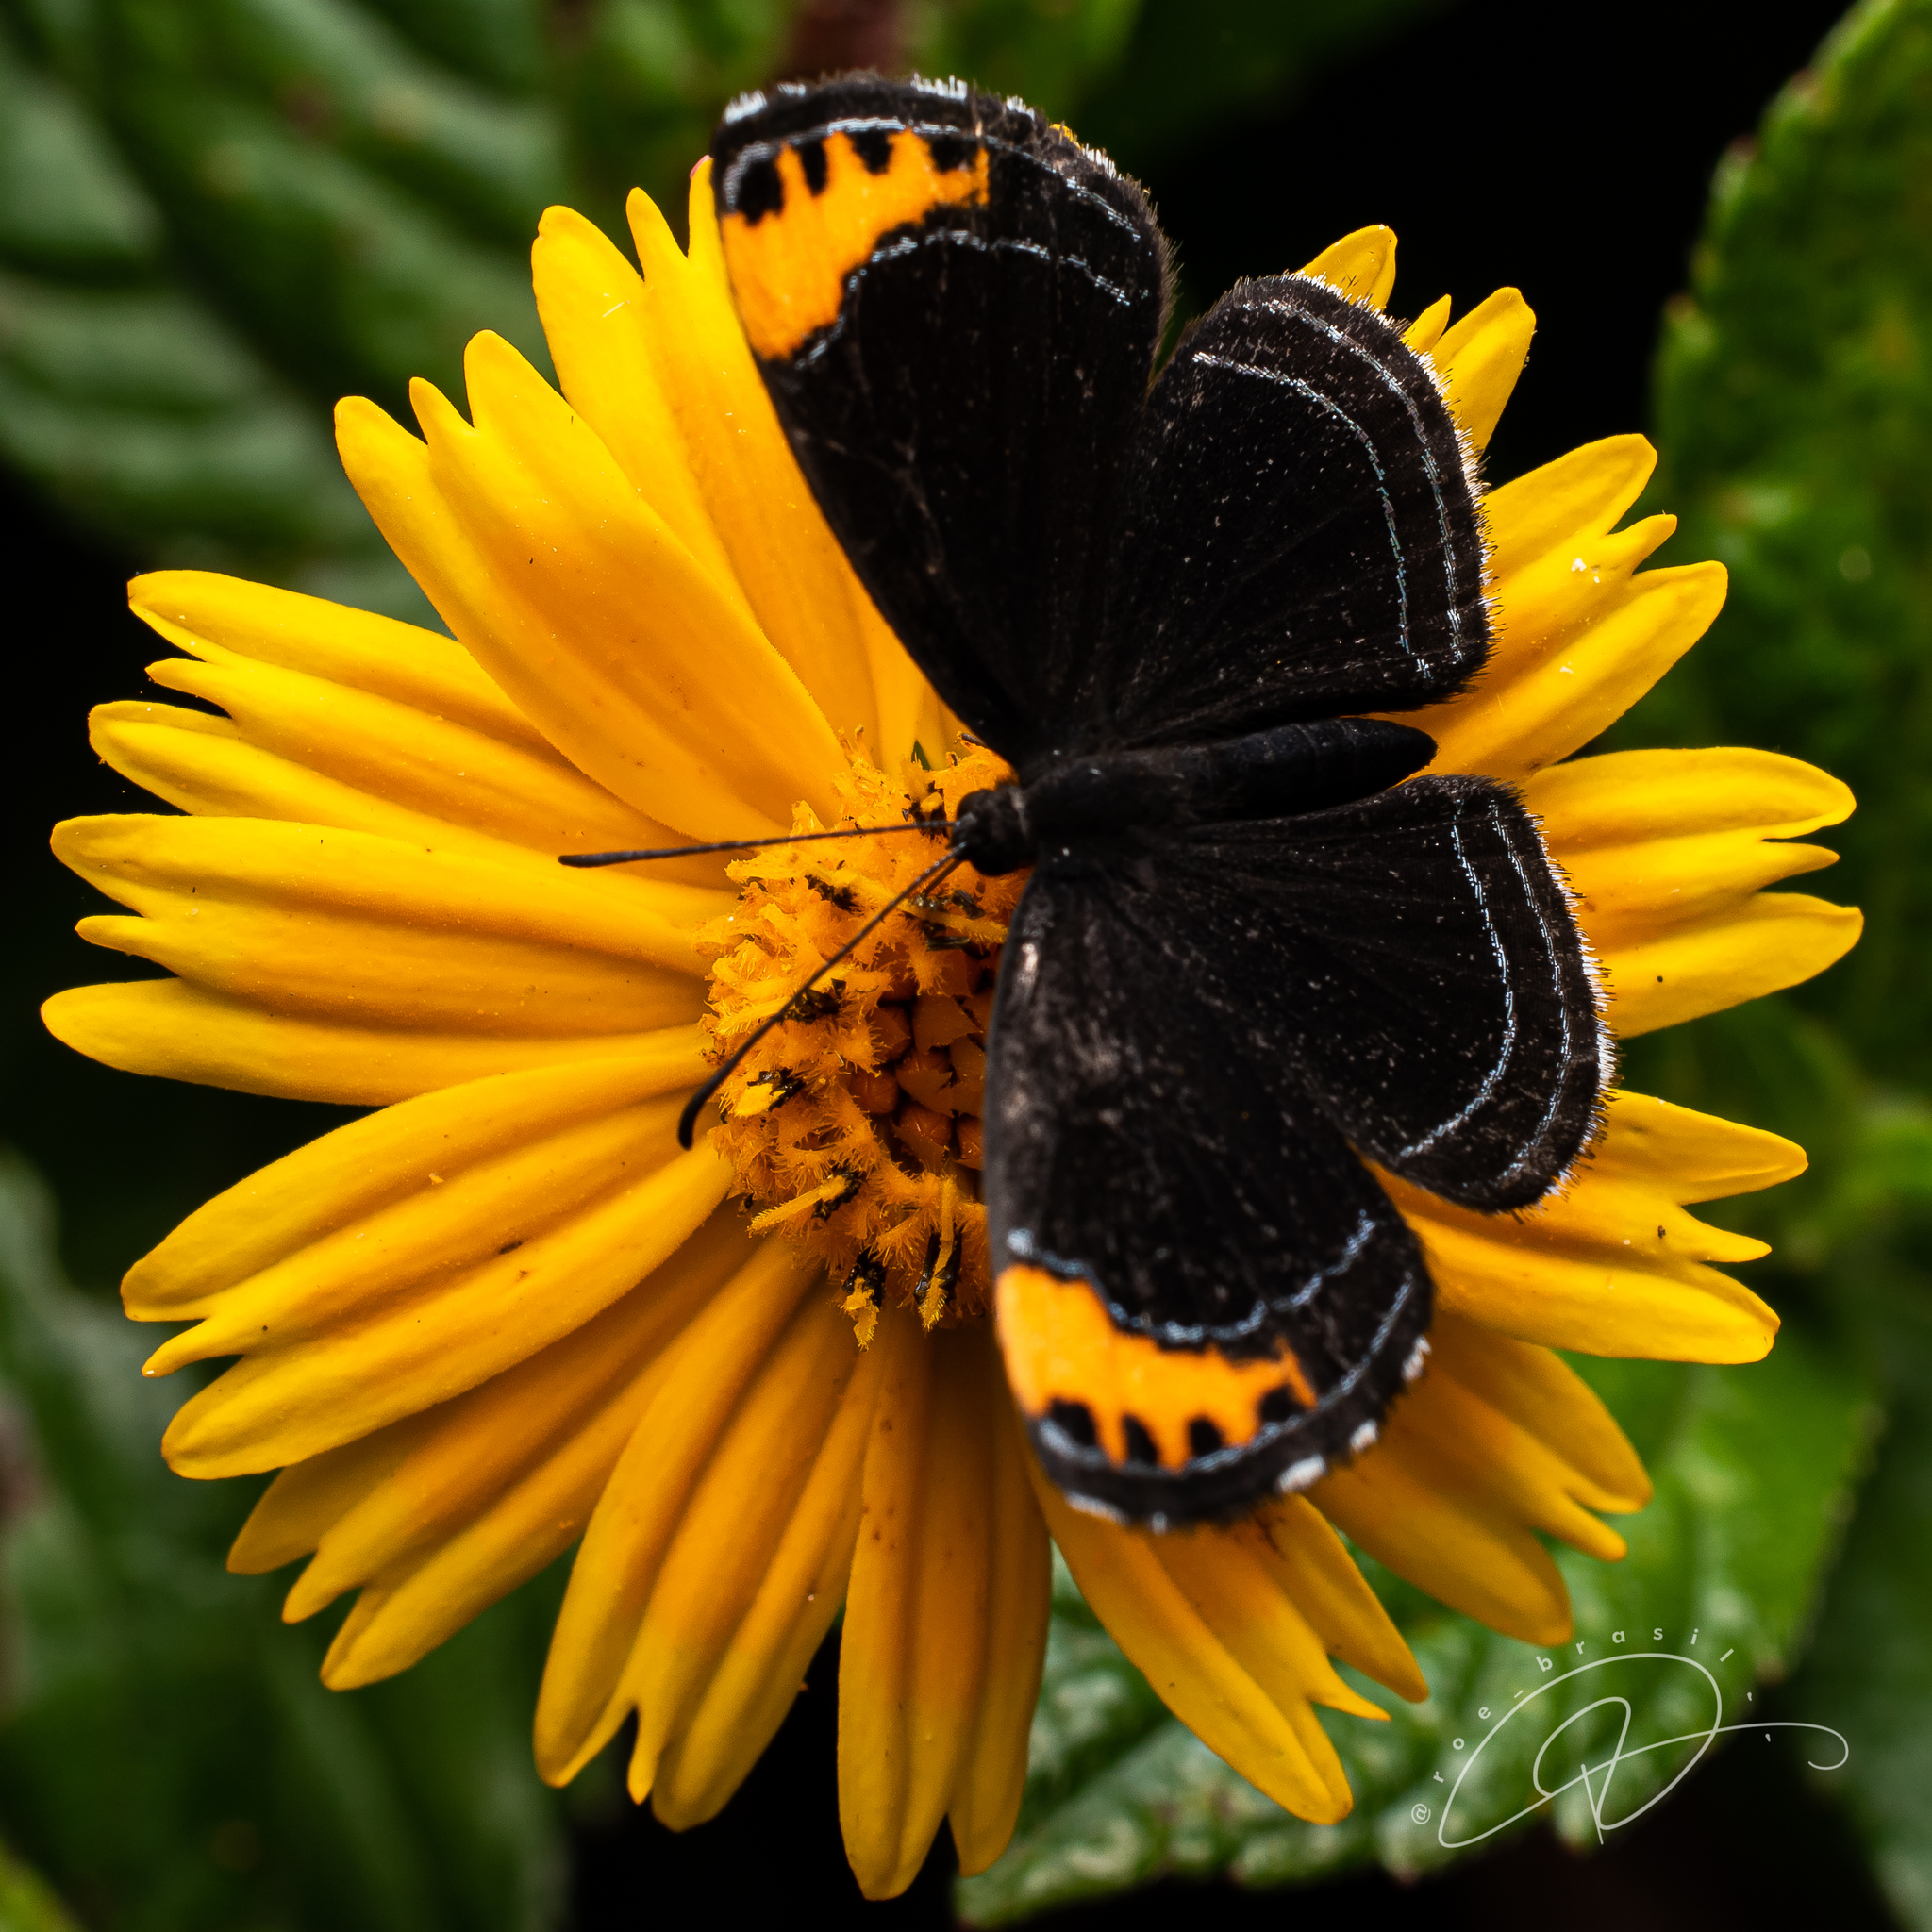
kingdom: Animalia
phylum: Arthropoda
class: Insecta
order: Lepidoptera
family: Riodinidae
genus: Nelone
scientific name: Nelone cadmeis
